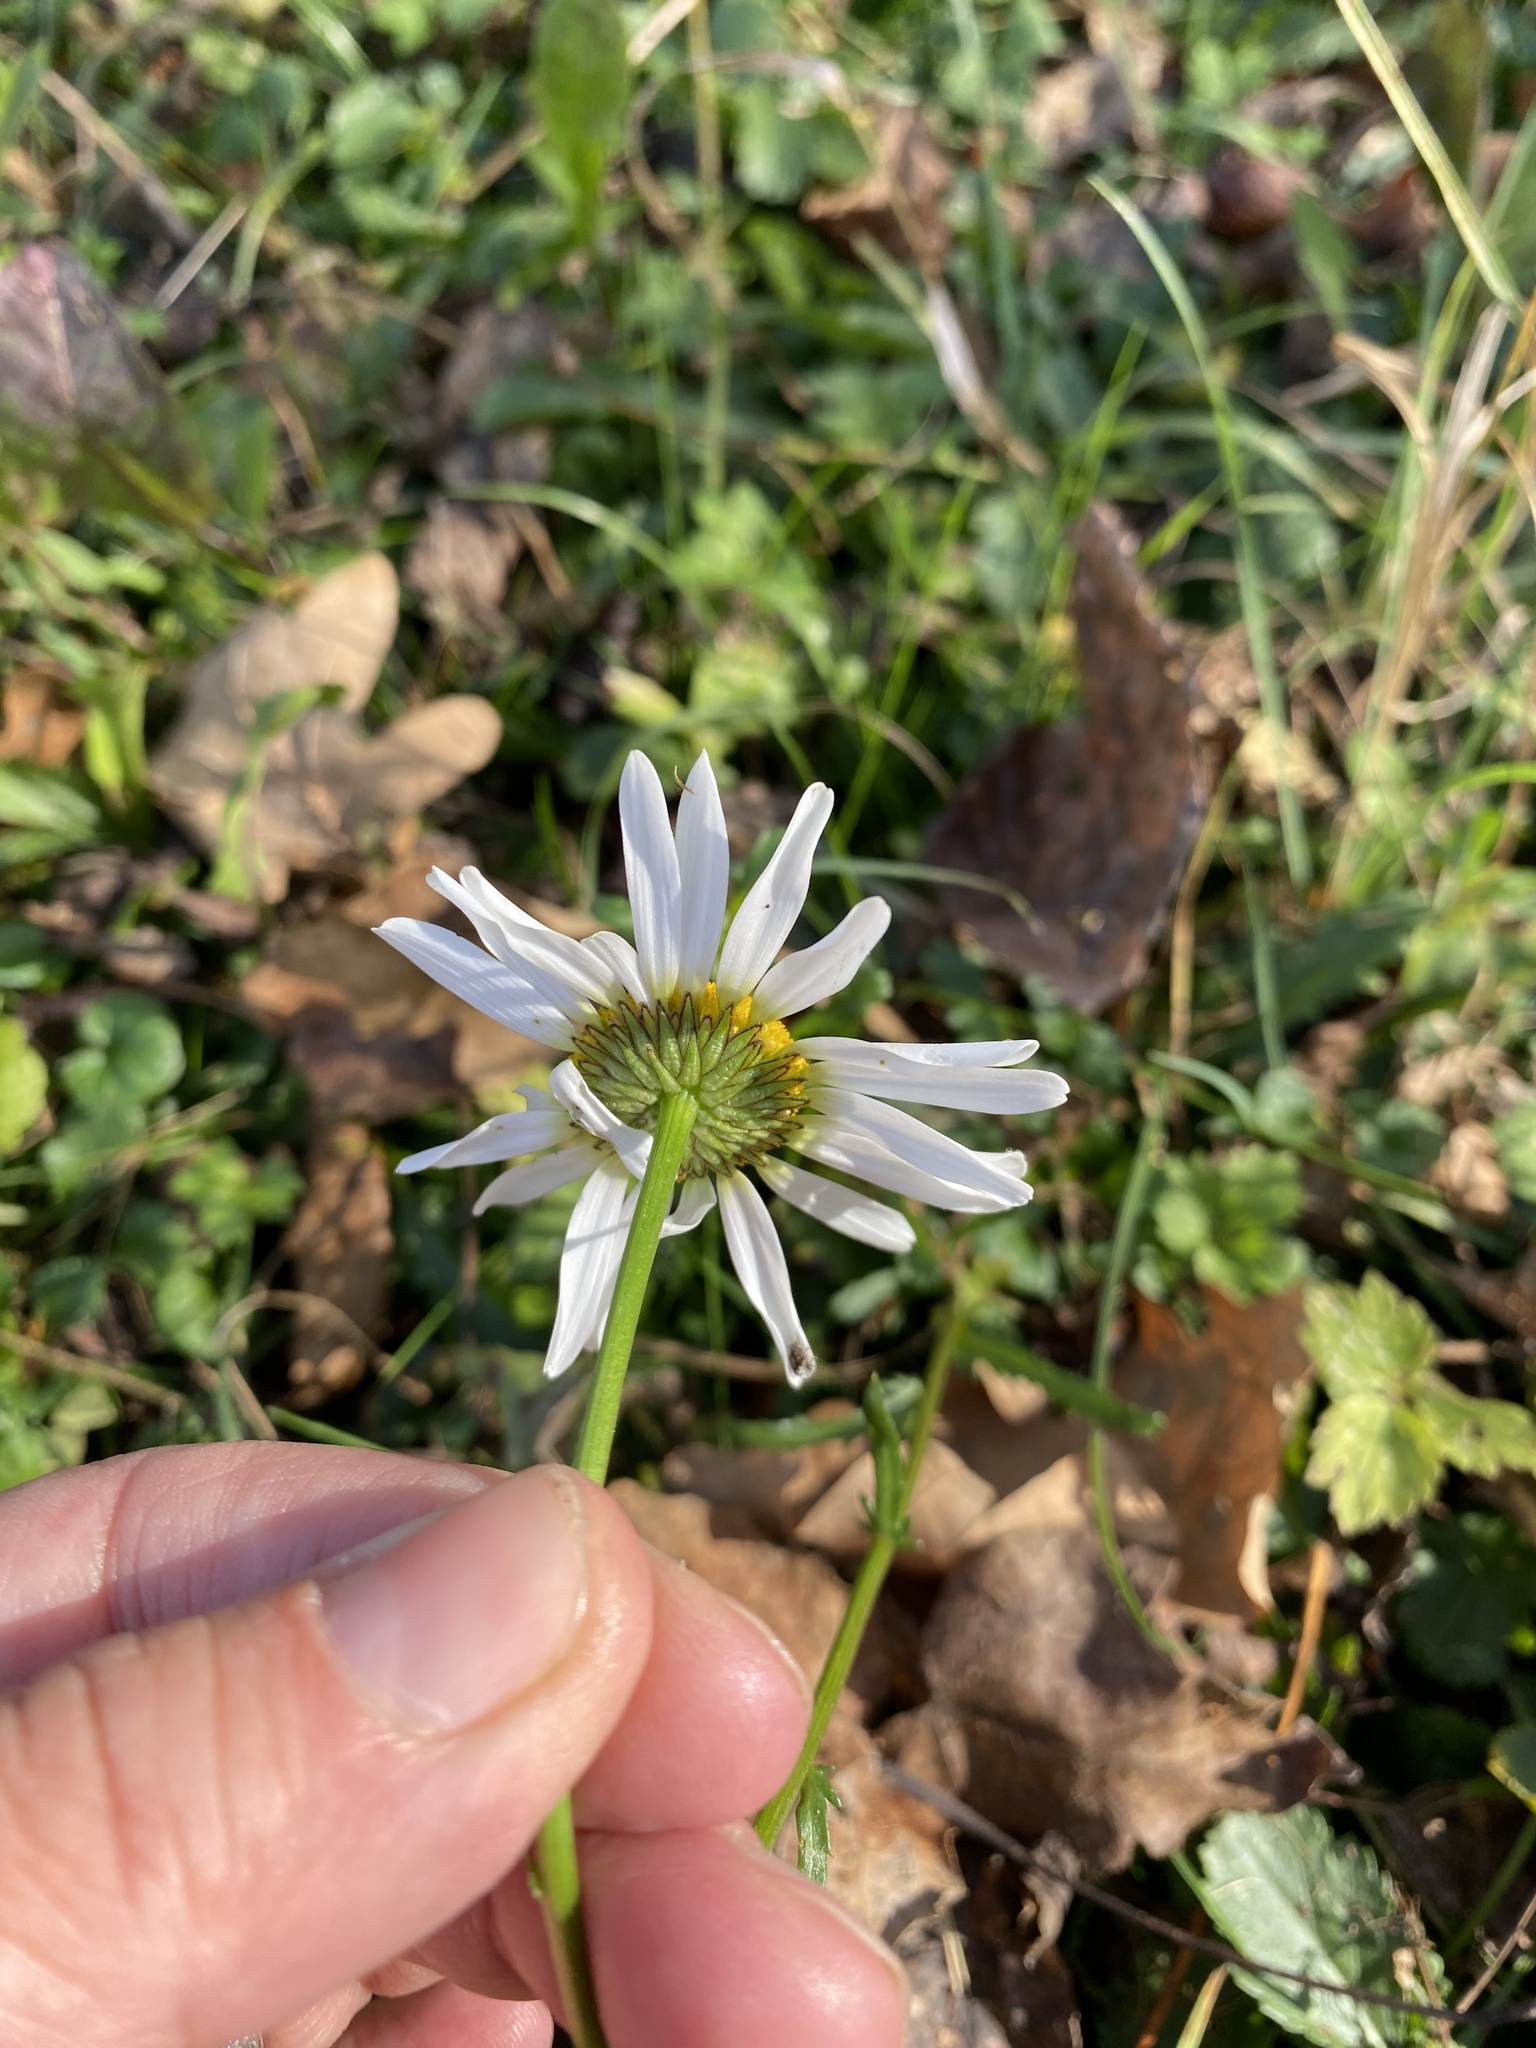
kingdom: Plantae
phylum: Tracheophyta
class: Magnoliopsida
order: Asterales
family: Asteraceae
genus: Leucanthemum
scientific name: Leucanthemum vulgare
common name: Oxeye daisy
